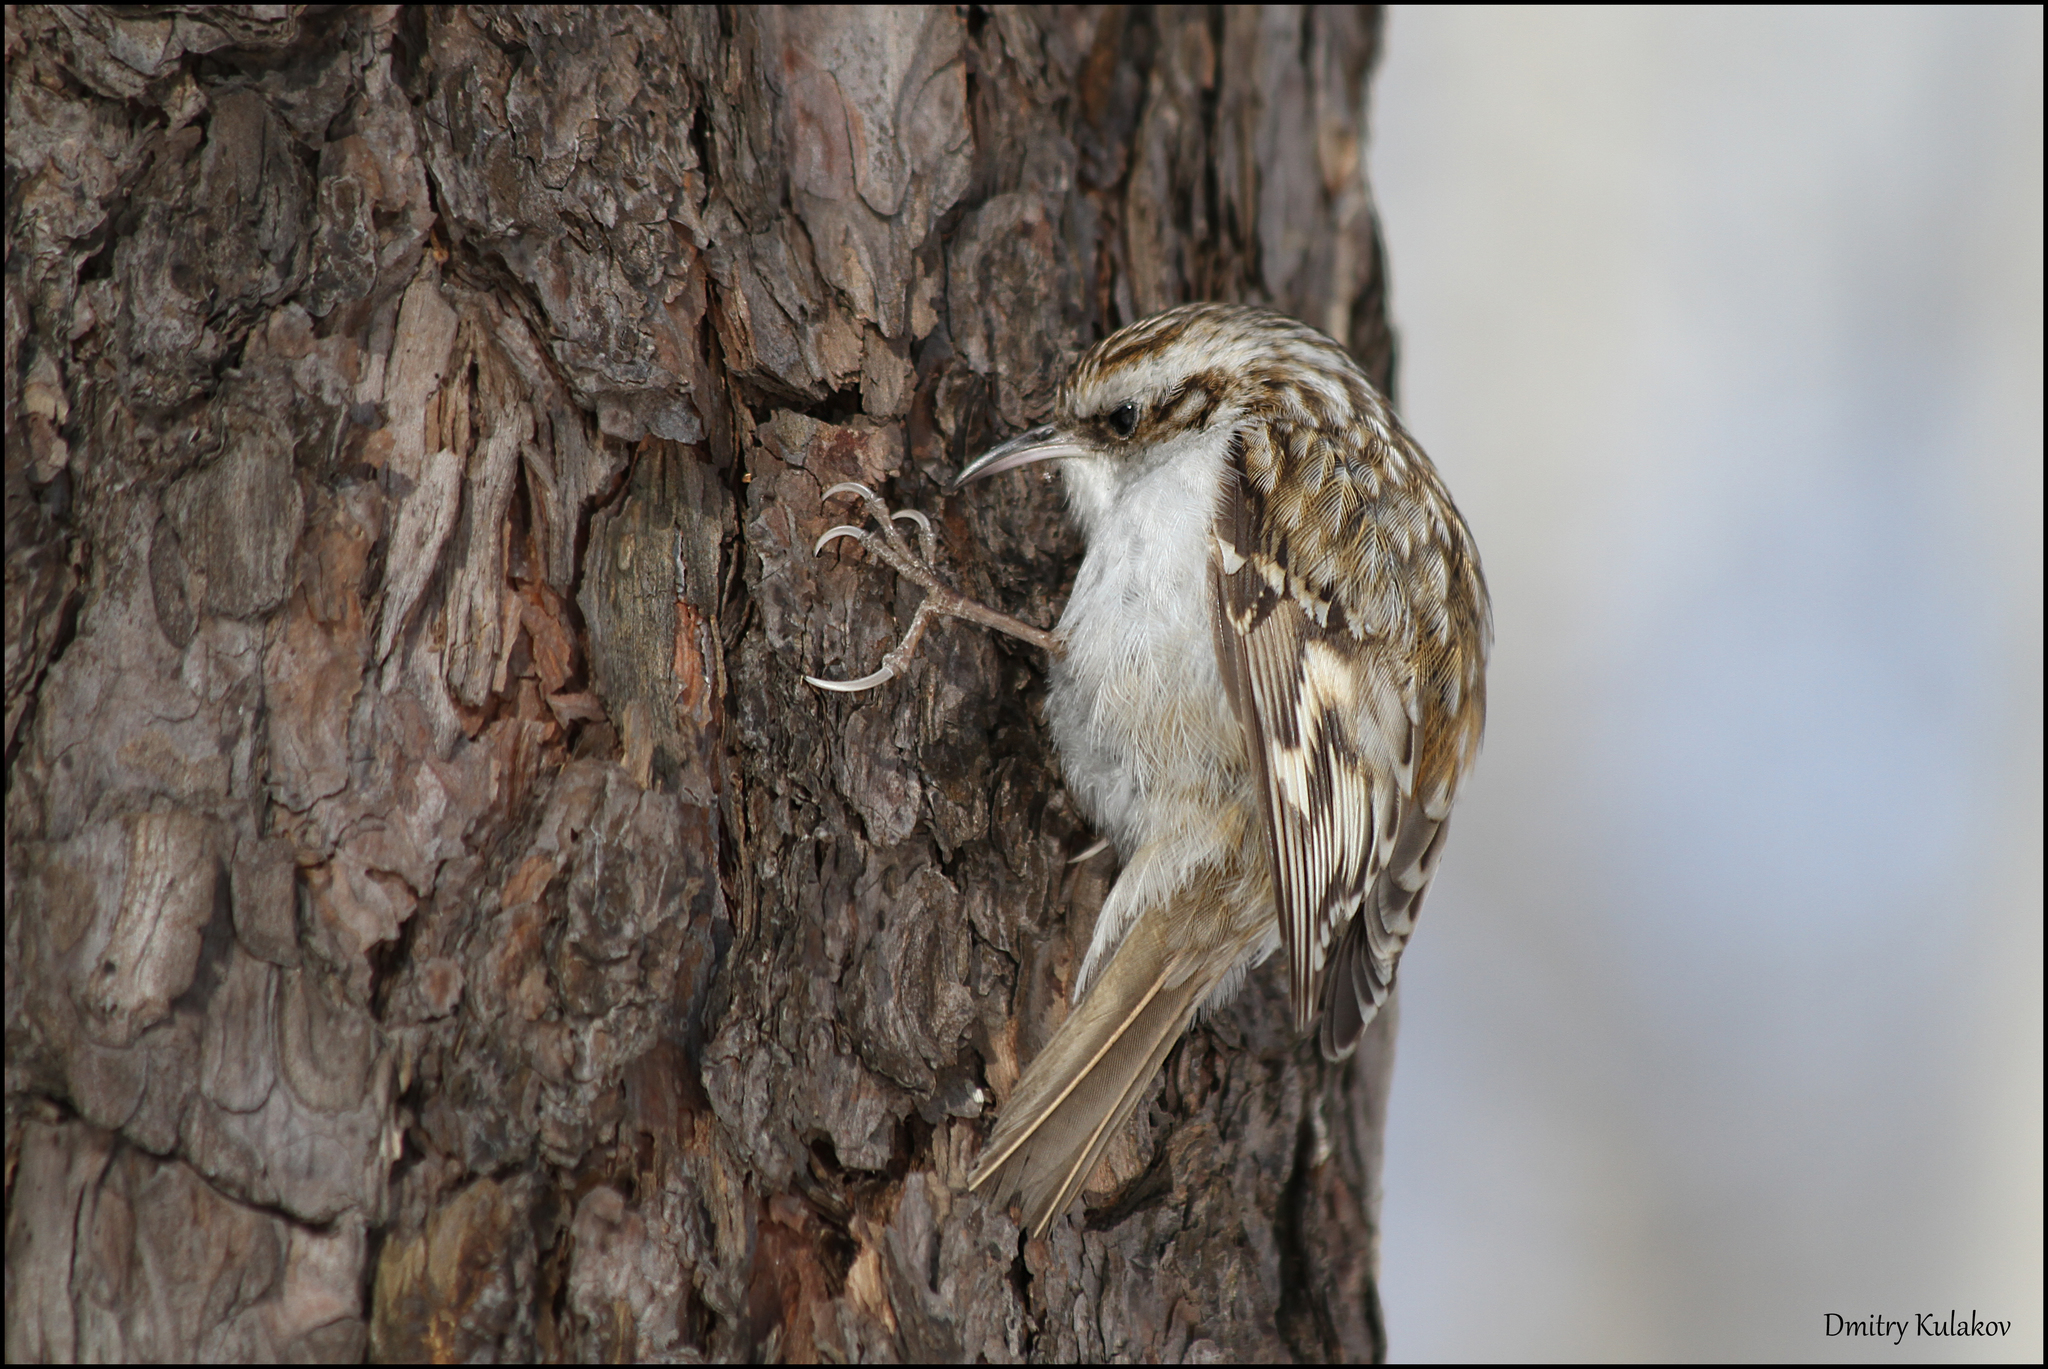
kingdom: Animalia
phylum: Chordata
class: Aves
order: Passeriformes
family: Certhiidae
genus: Certhia
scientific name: Certhia familiaris
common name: Eurasian treecreeper
